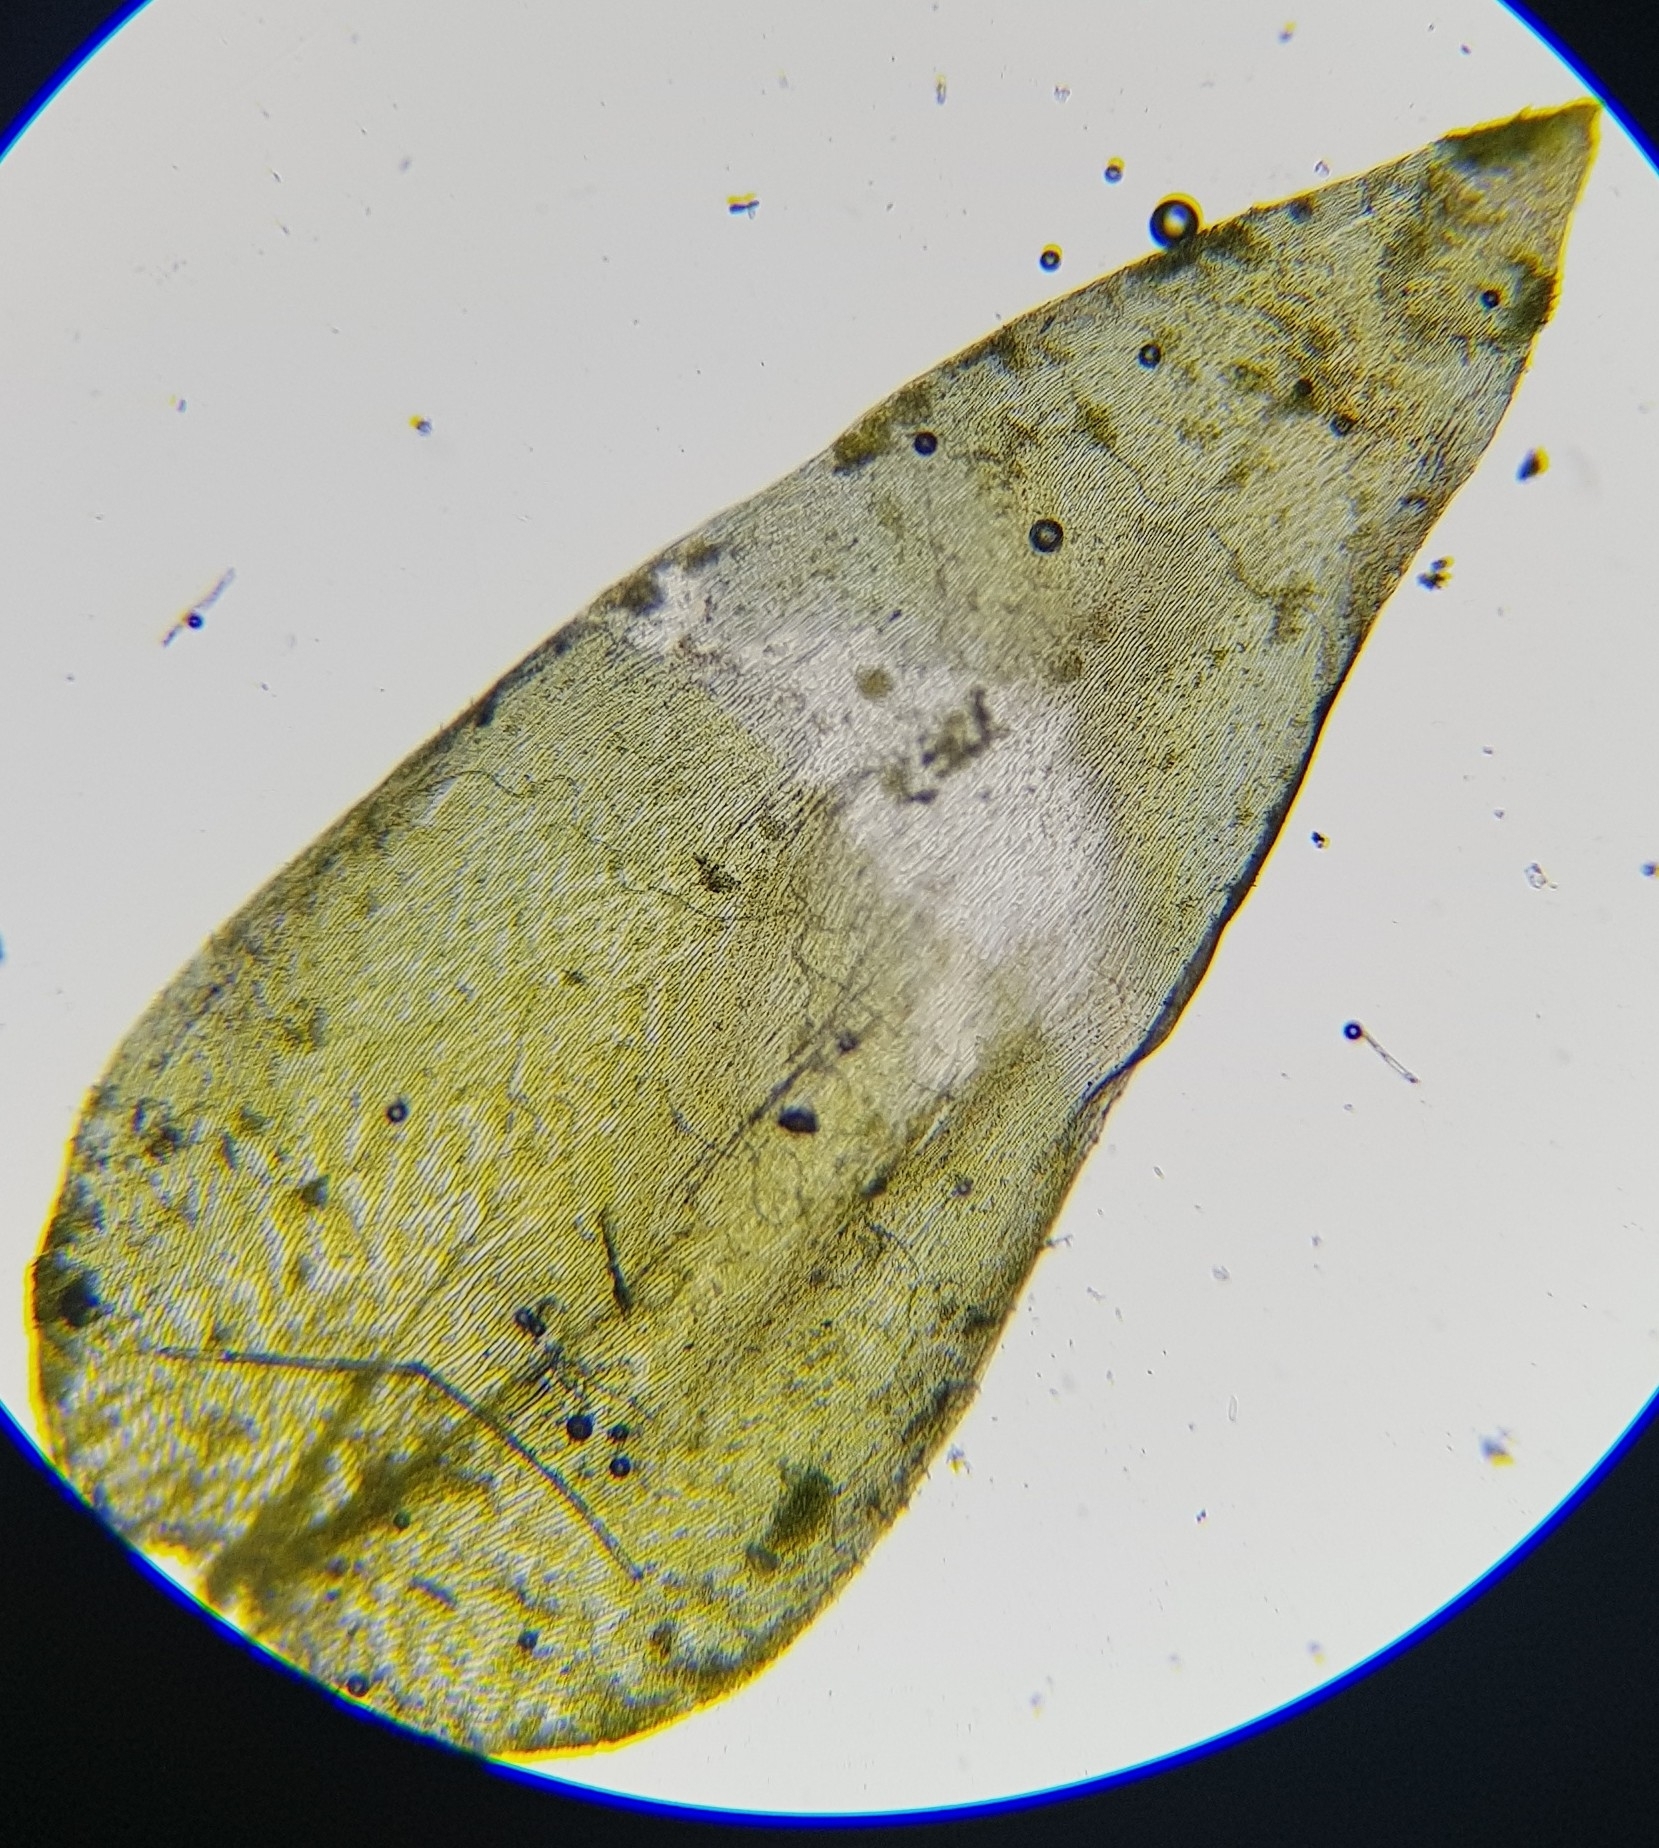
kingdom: Plantae
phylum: Bryophyta
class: Bryopsida
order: Hypnales
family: Plagiotheciaceae
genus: Plagiothecium
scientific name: Plagiothecium undulatum
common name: Waved silk-moss
